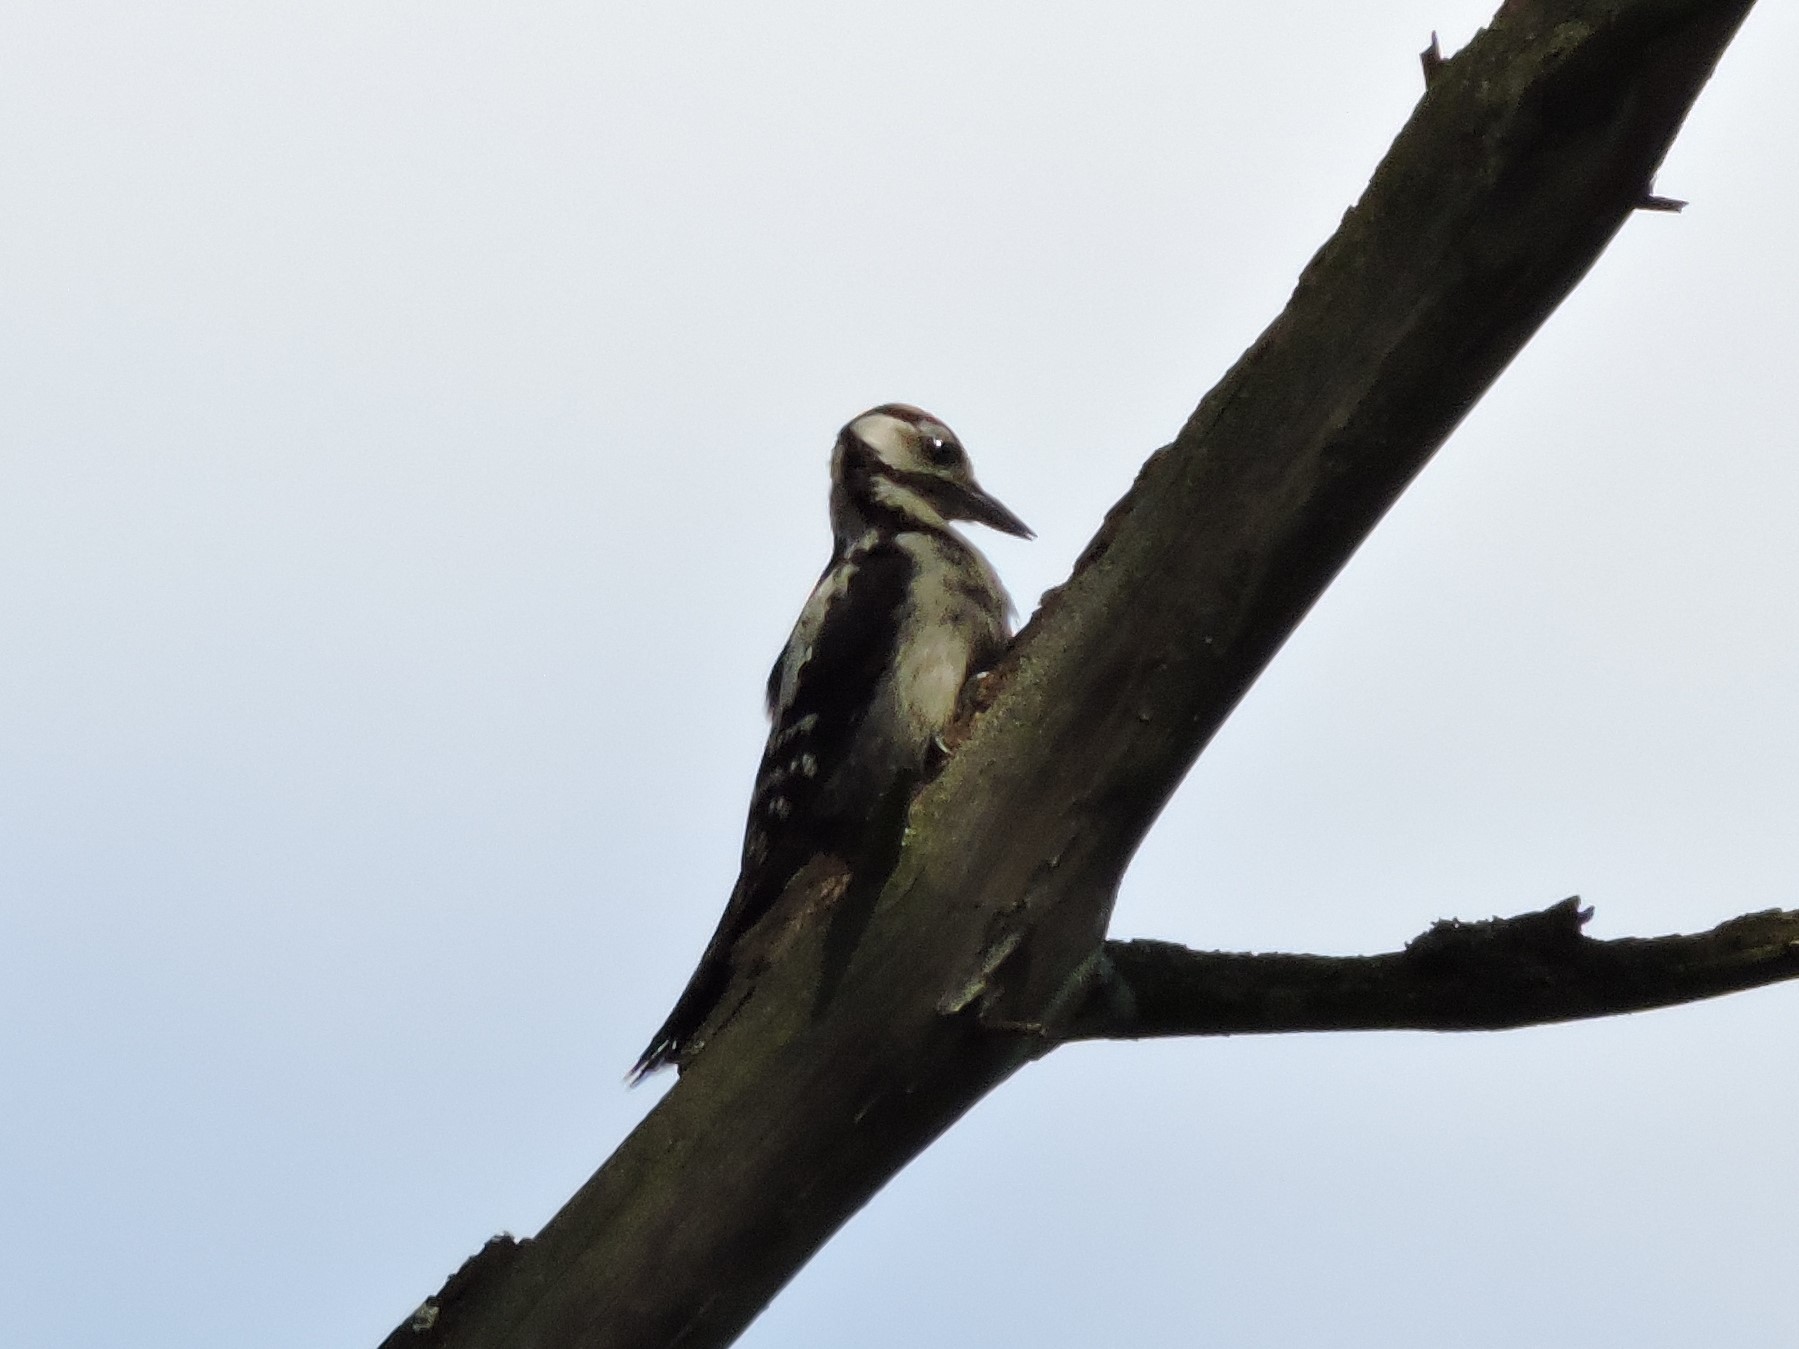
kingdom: Animalia
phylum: Chordata
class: Aves
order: Piciformes
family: Picidae
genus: Dendrocopos
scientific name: Dendrocopos major
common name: Great spotted woodpecker
